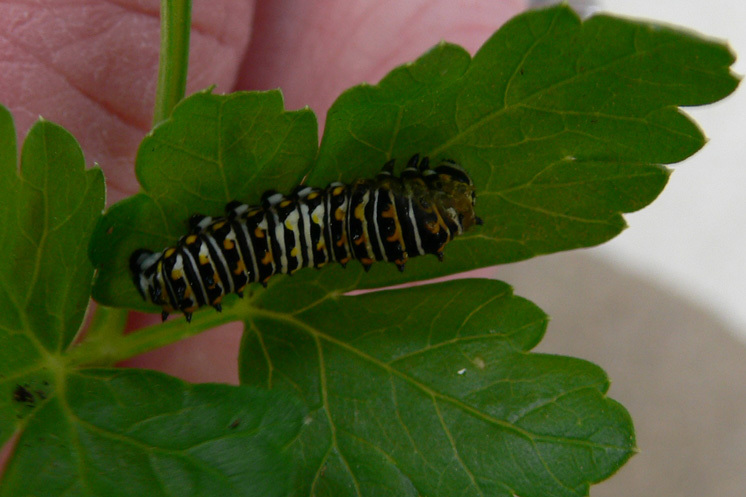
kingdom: Animalia
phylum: Arthropoda
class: Insecta
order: Lepidoptera
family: Papilionidae
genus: Papilio
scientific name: Papilio polyxenes
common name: Black swallowtail
